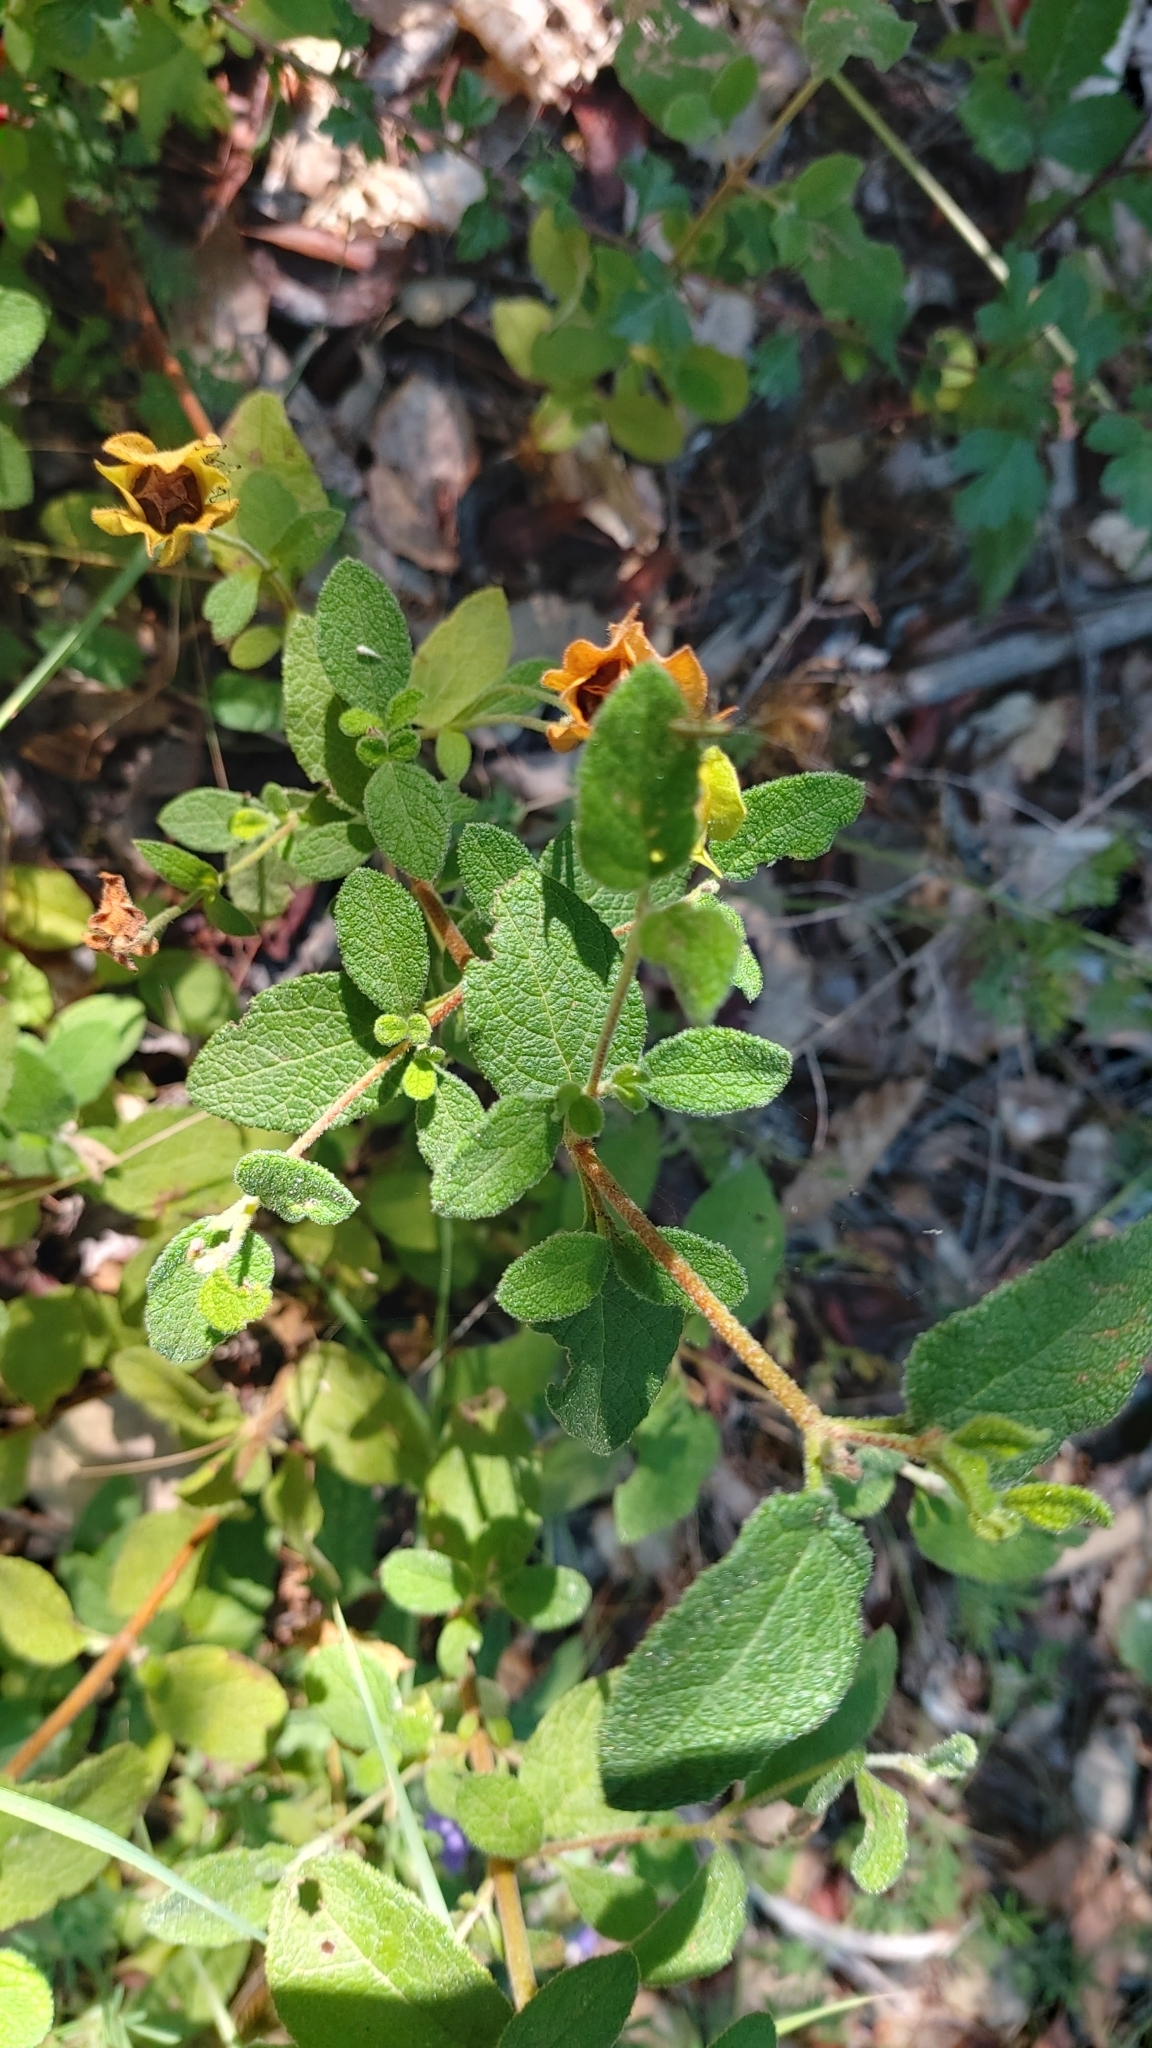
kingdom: Plantae
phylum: Tracheophyta
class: Magnoliopsida
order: Malvales
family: Cistaceae
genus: Cistus
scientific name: Cistus salviifolius
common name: Salvia cistus
